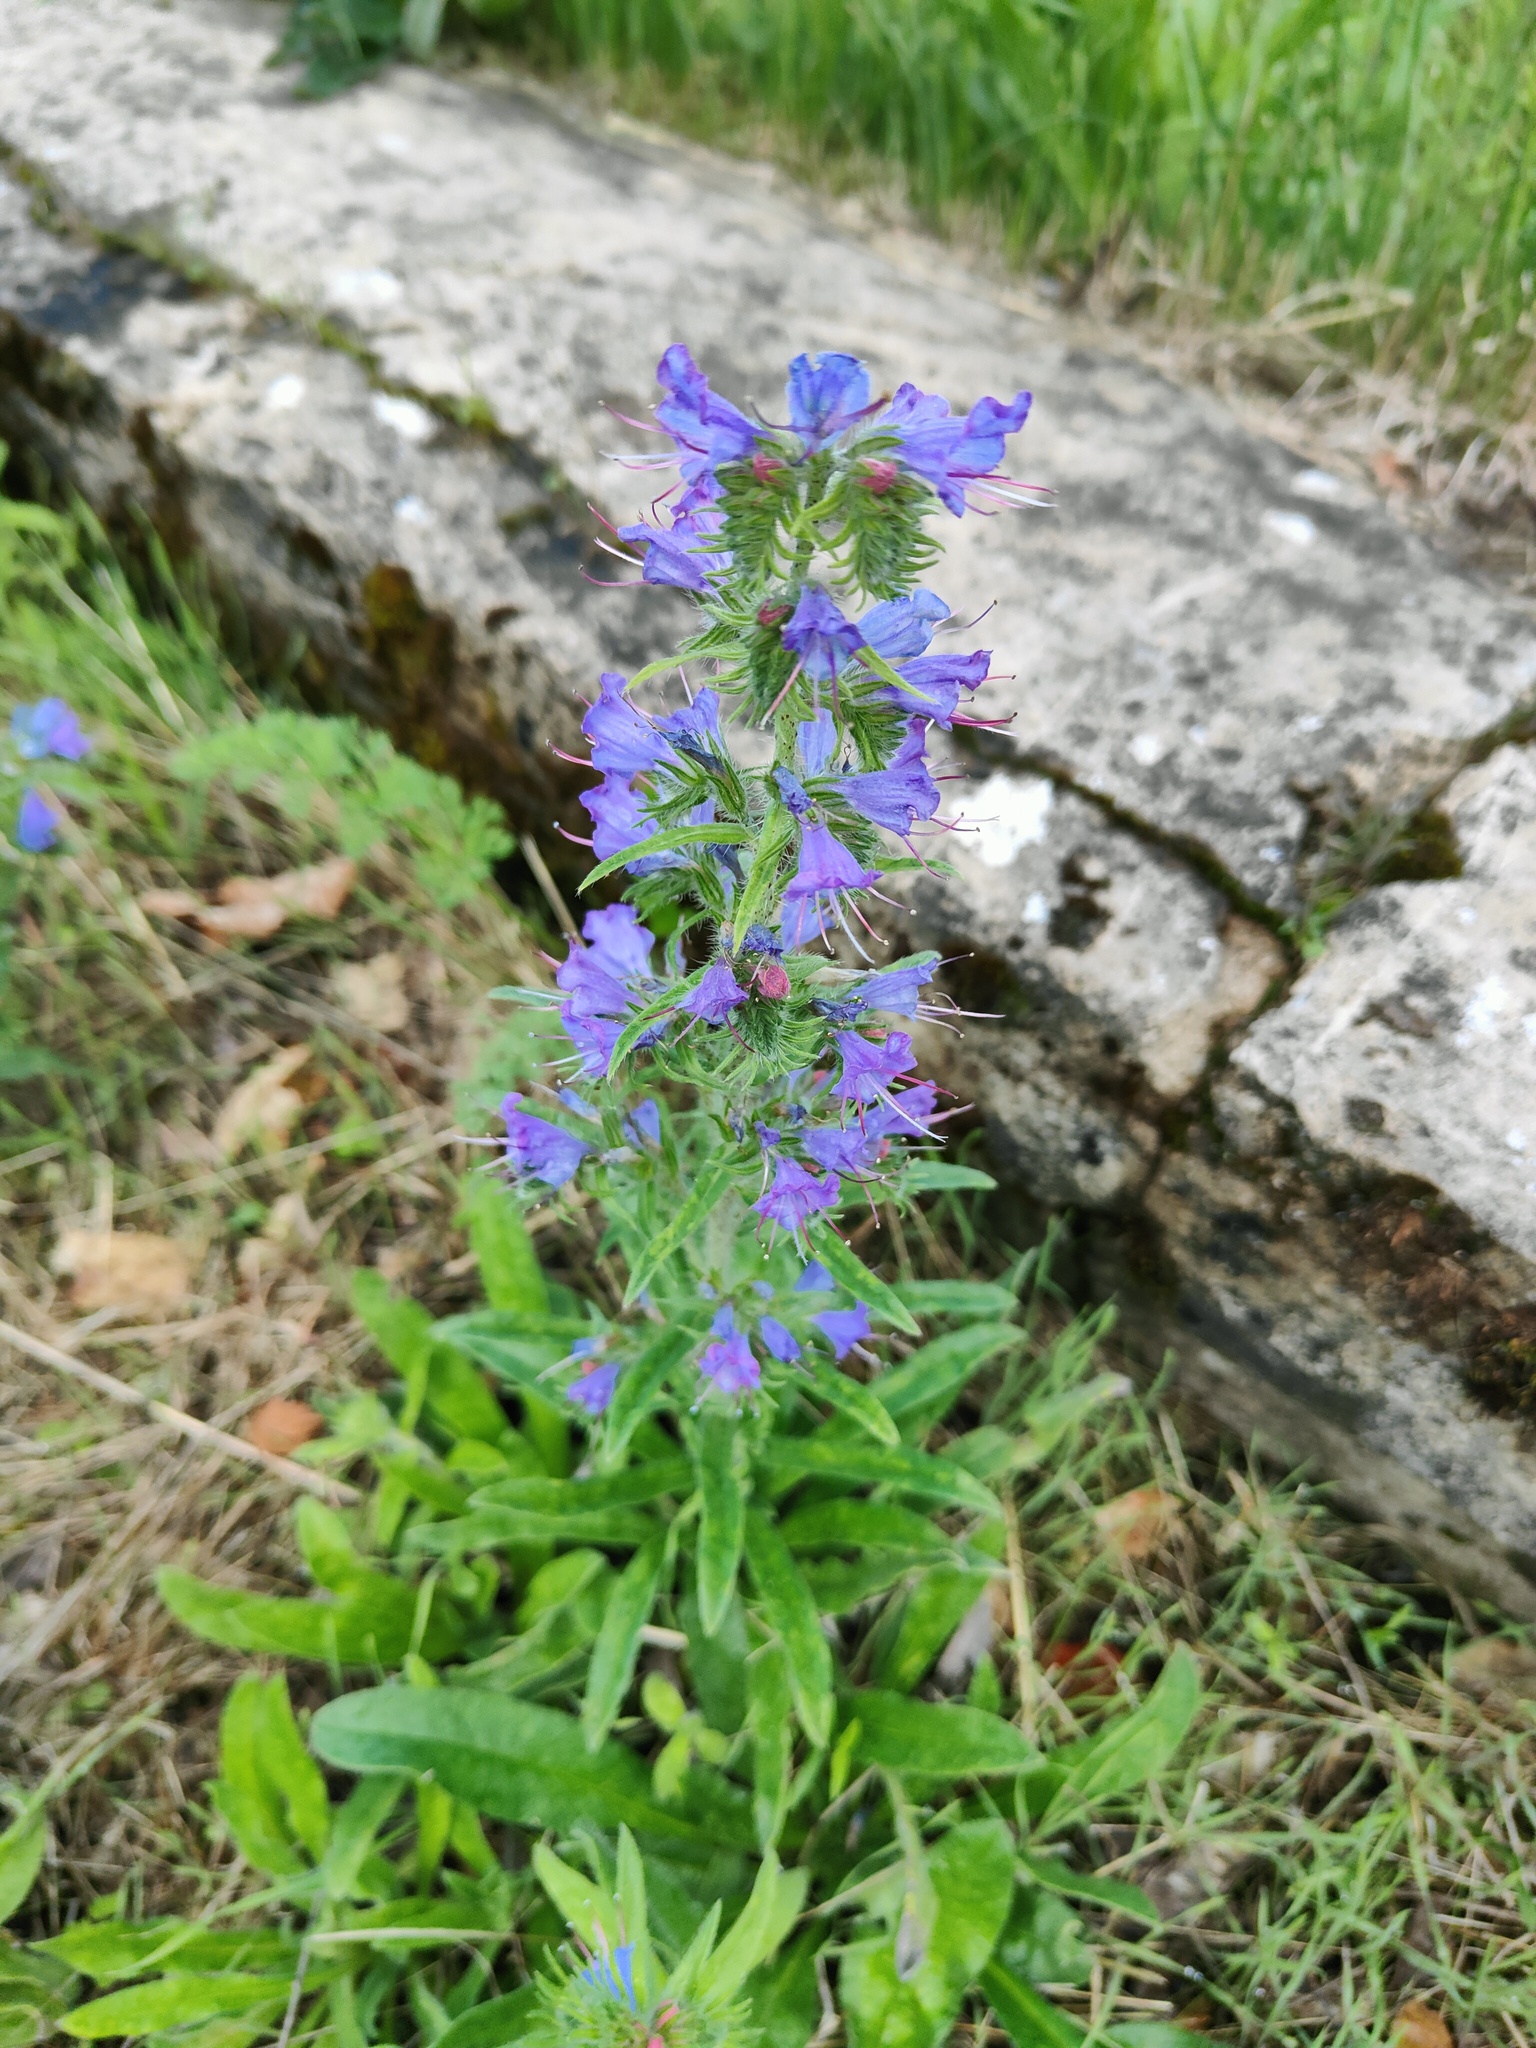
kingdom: Plantae
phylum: Tracheophyta
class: Magnoliopsida
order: Boraginales
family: Boraginaceae
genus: Echium
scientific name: Echium vulgare
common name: Common viper's bugloss
